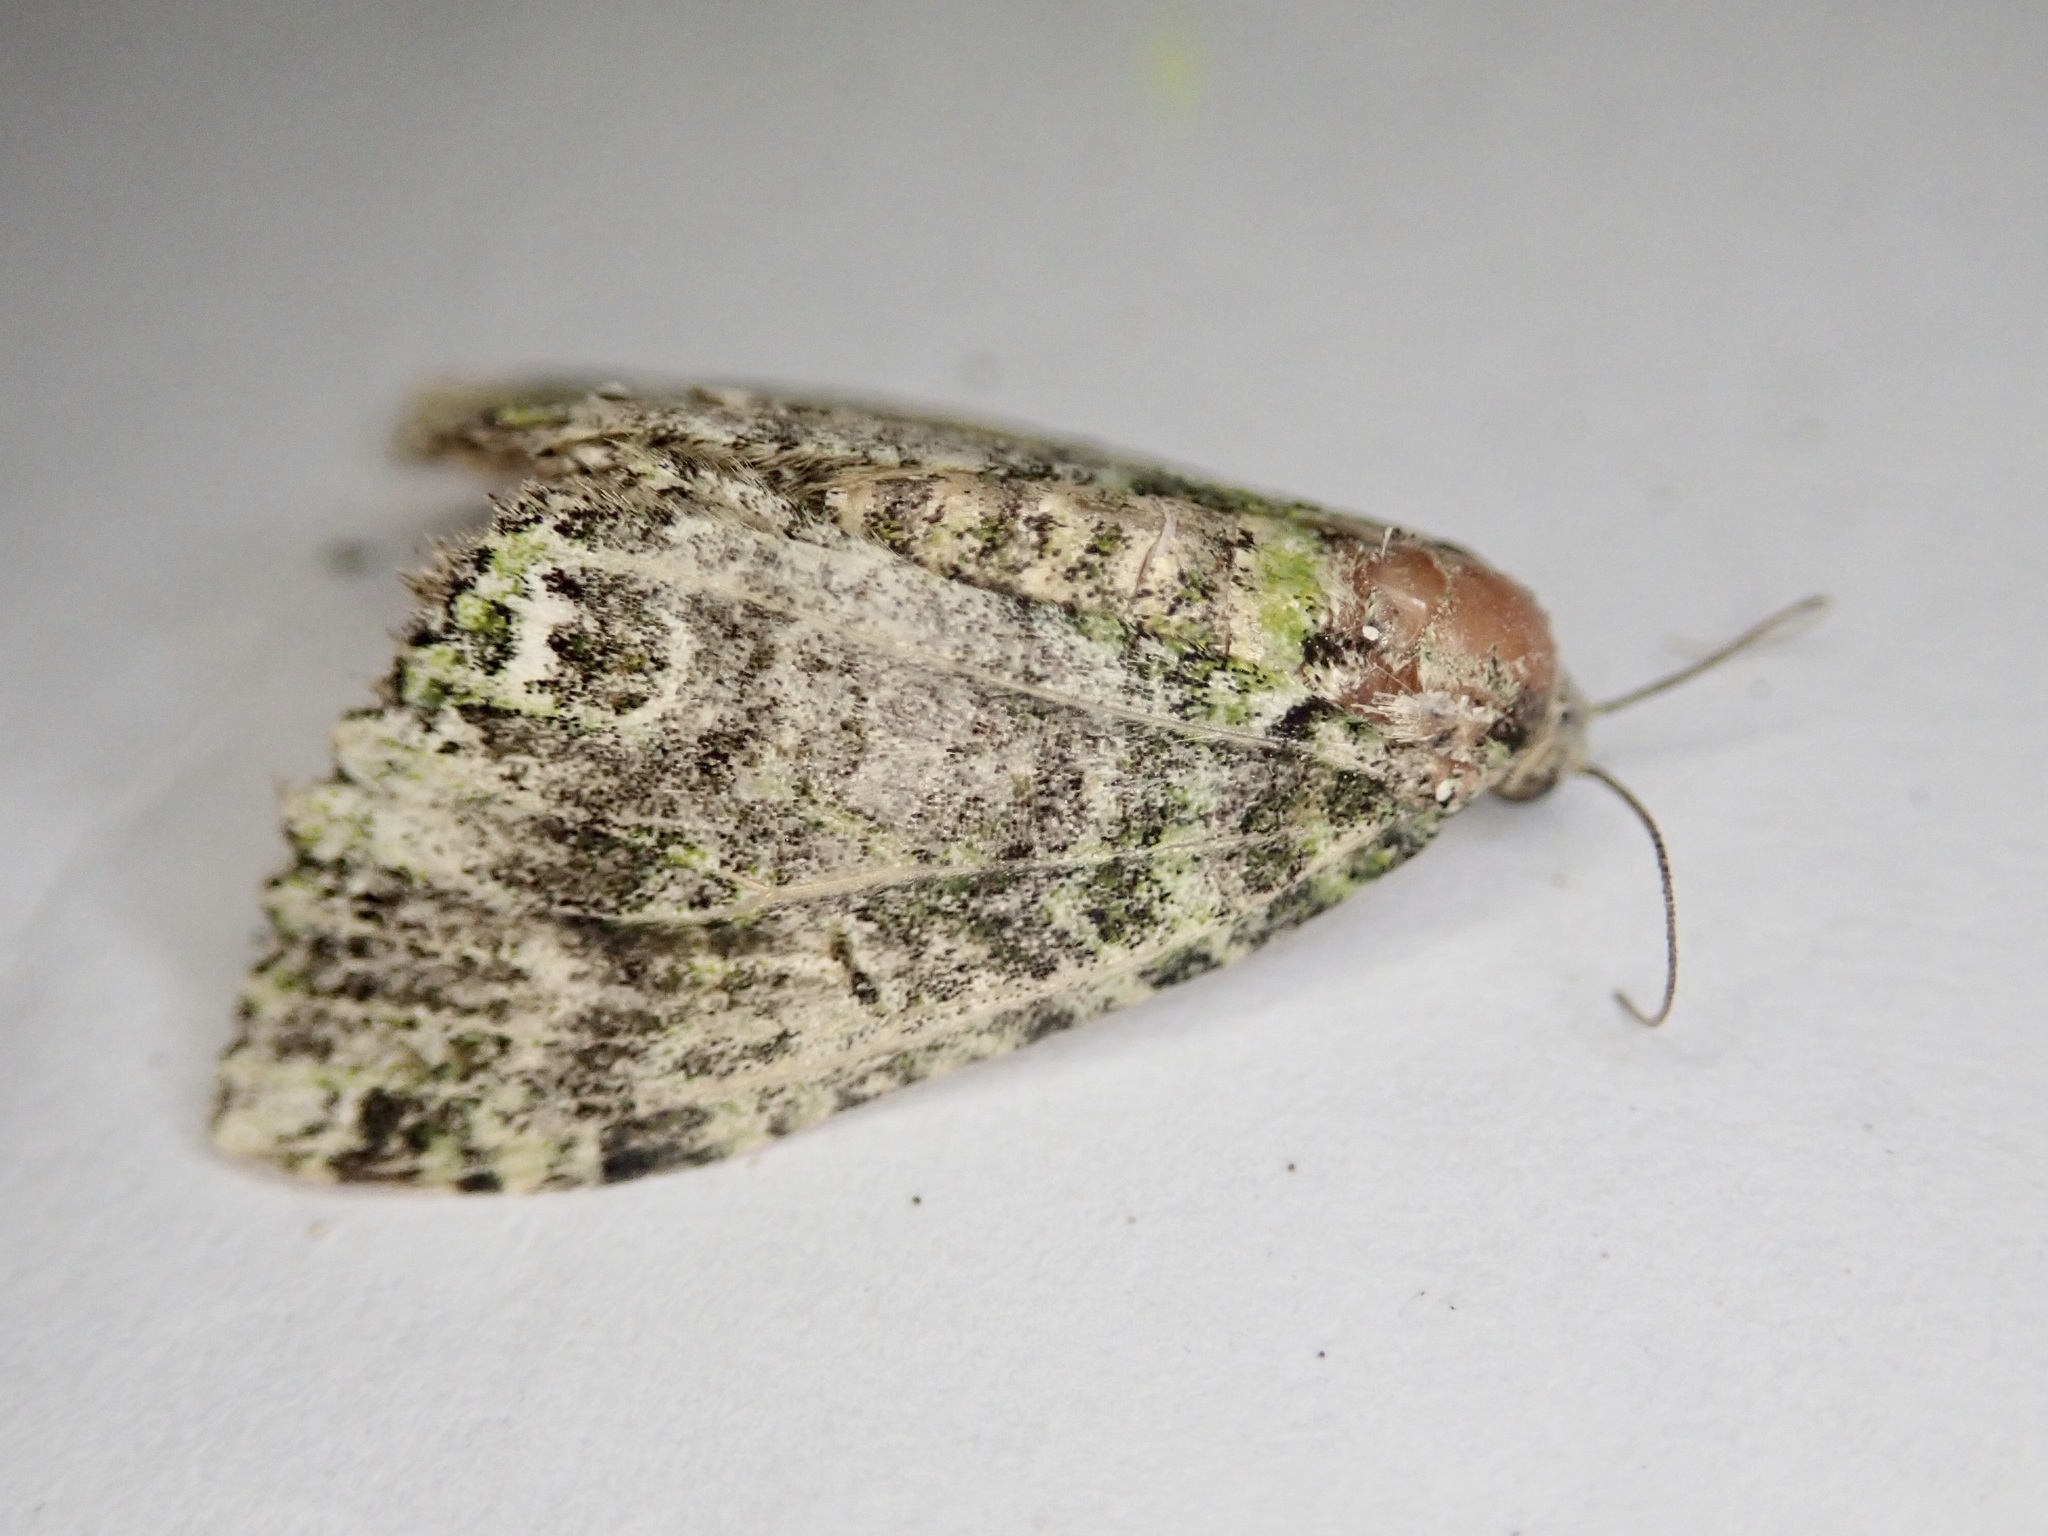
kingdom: Animalia
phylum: Arthropoda
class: Insecta
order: Lepidoptera
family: Geometridae
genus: Austrocidaria
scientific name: Austrocidaria similata
